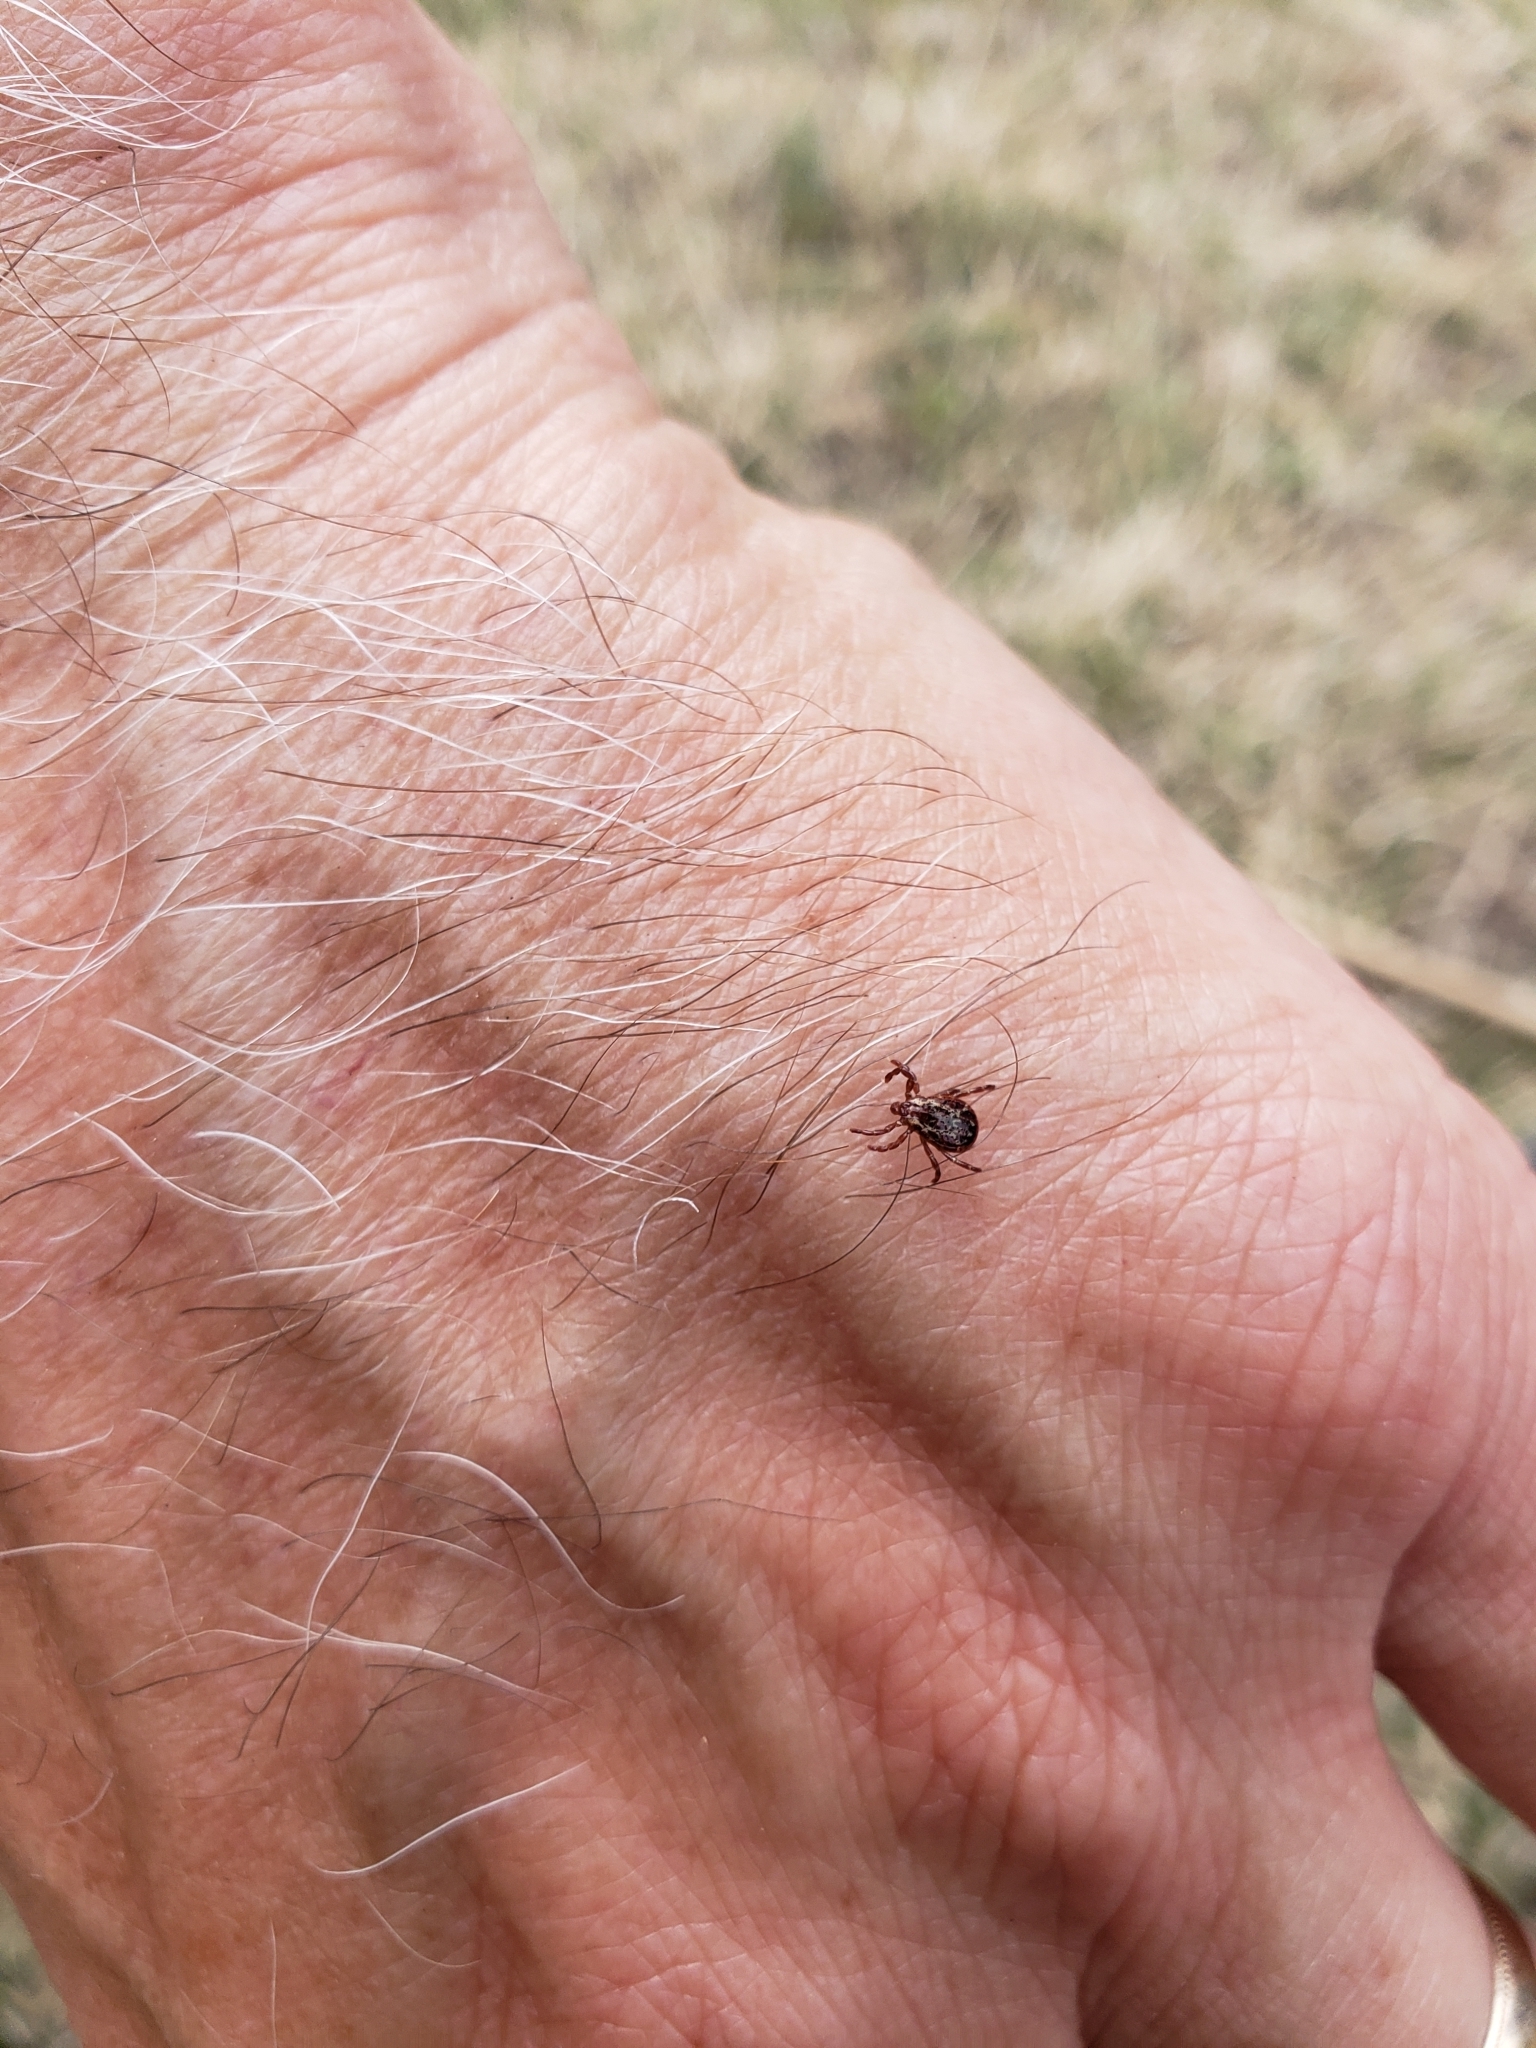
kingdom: Animalia
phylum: Arthropoda
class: Arachnida
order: Ixodida
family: Ixodidae
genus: Dermacentor
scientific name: Dermacentor variabilis
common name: American dog tick
